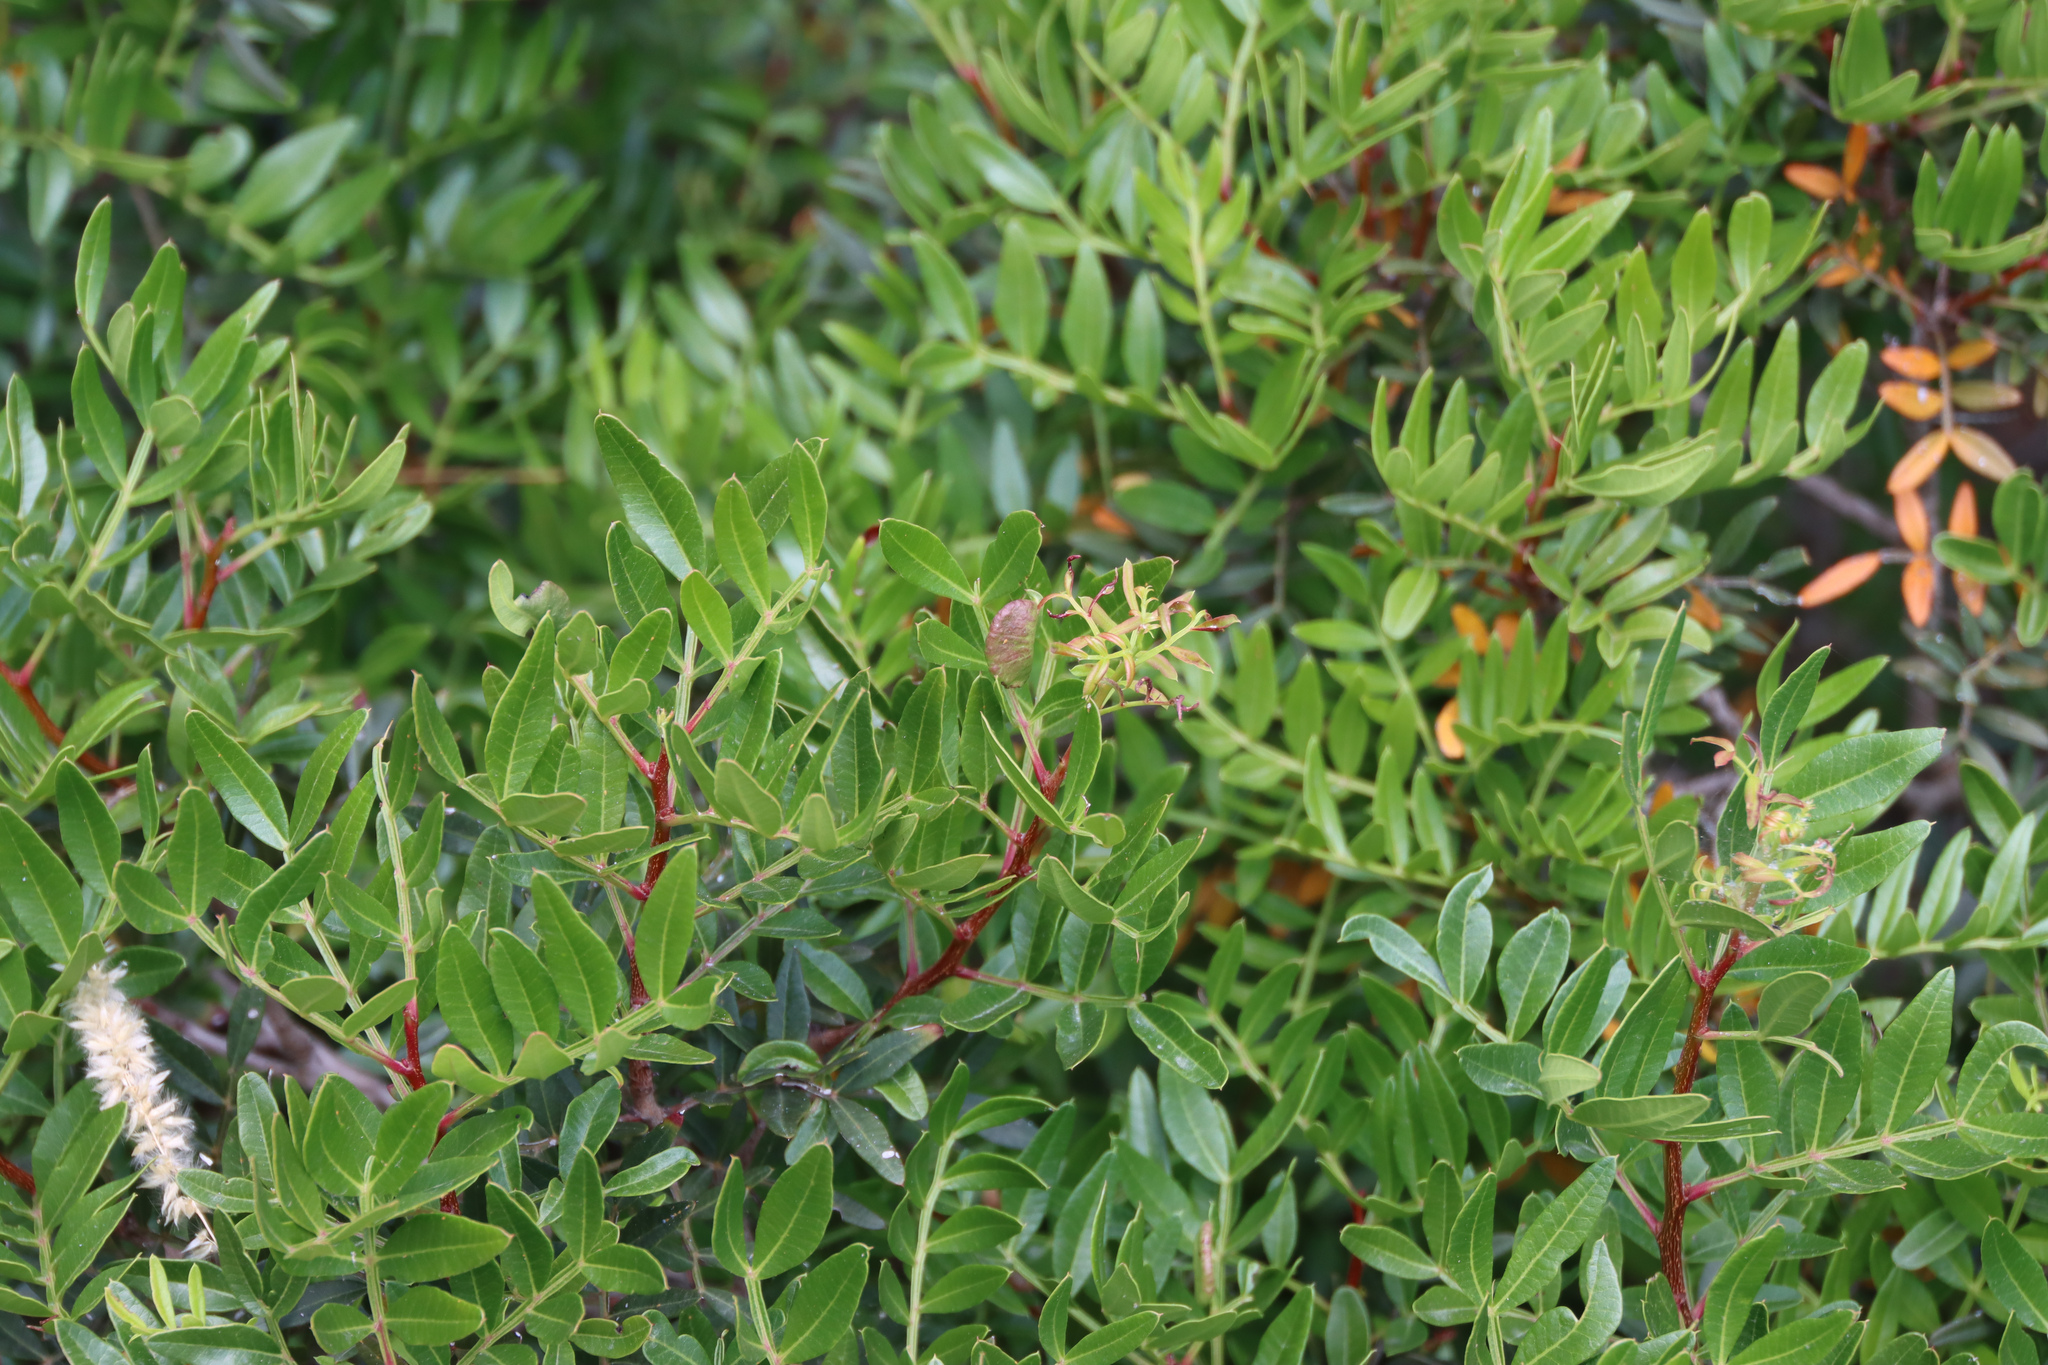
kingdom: Plantae
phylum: Tracheophyta
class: Magnoliopsida
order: Sapindales
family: Anacardiaceae
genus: Pistacia
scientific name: Pistacia lentiscus
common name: Lentisk
